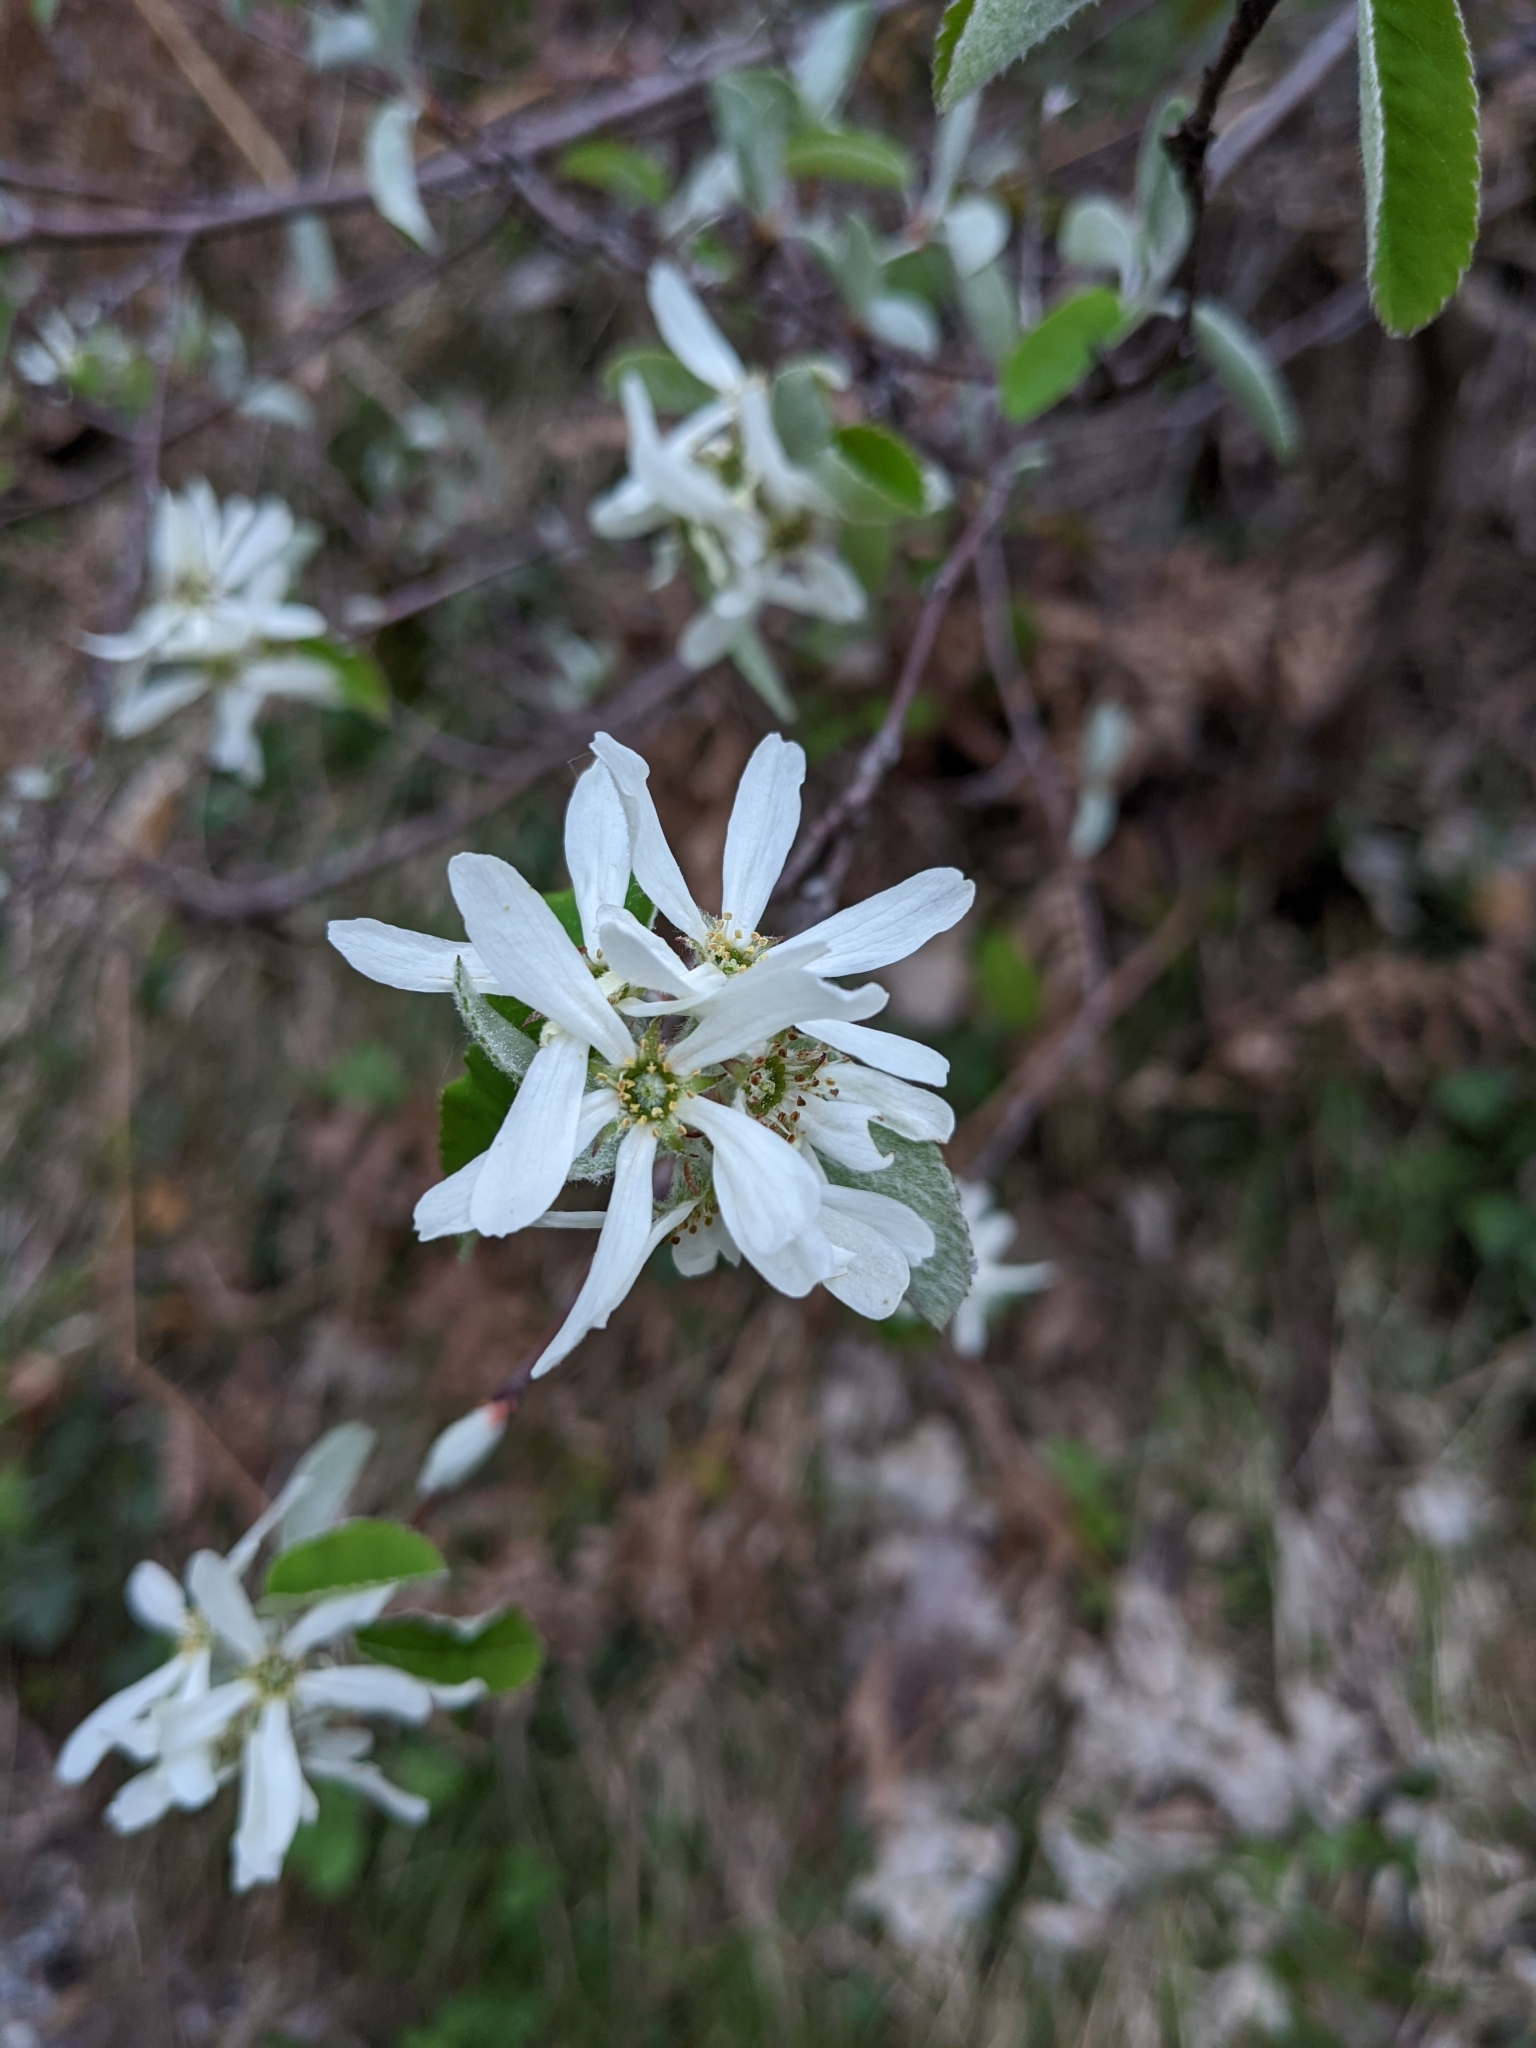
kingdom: Plantae
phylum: Tracheophyta
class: Magnoliopsida
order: Rosales
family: Rosaceae
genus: Amelanchier
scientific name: Amelanchier ovalis
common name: Serviceberry
